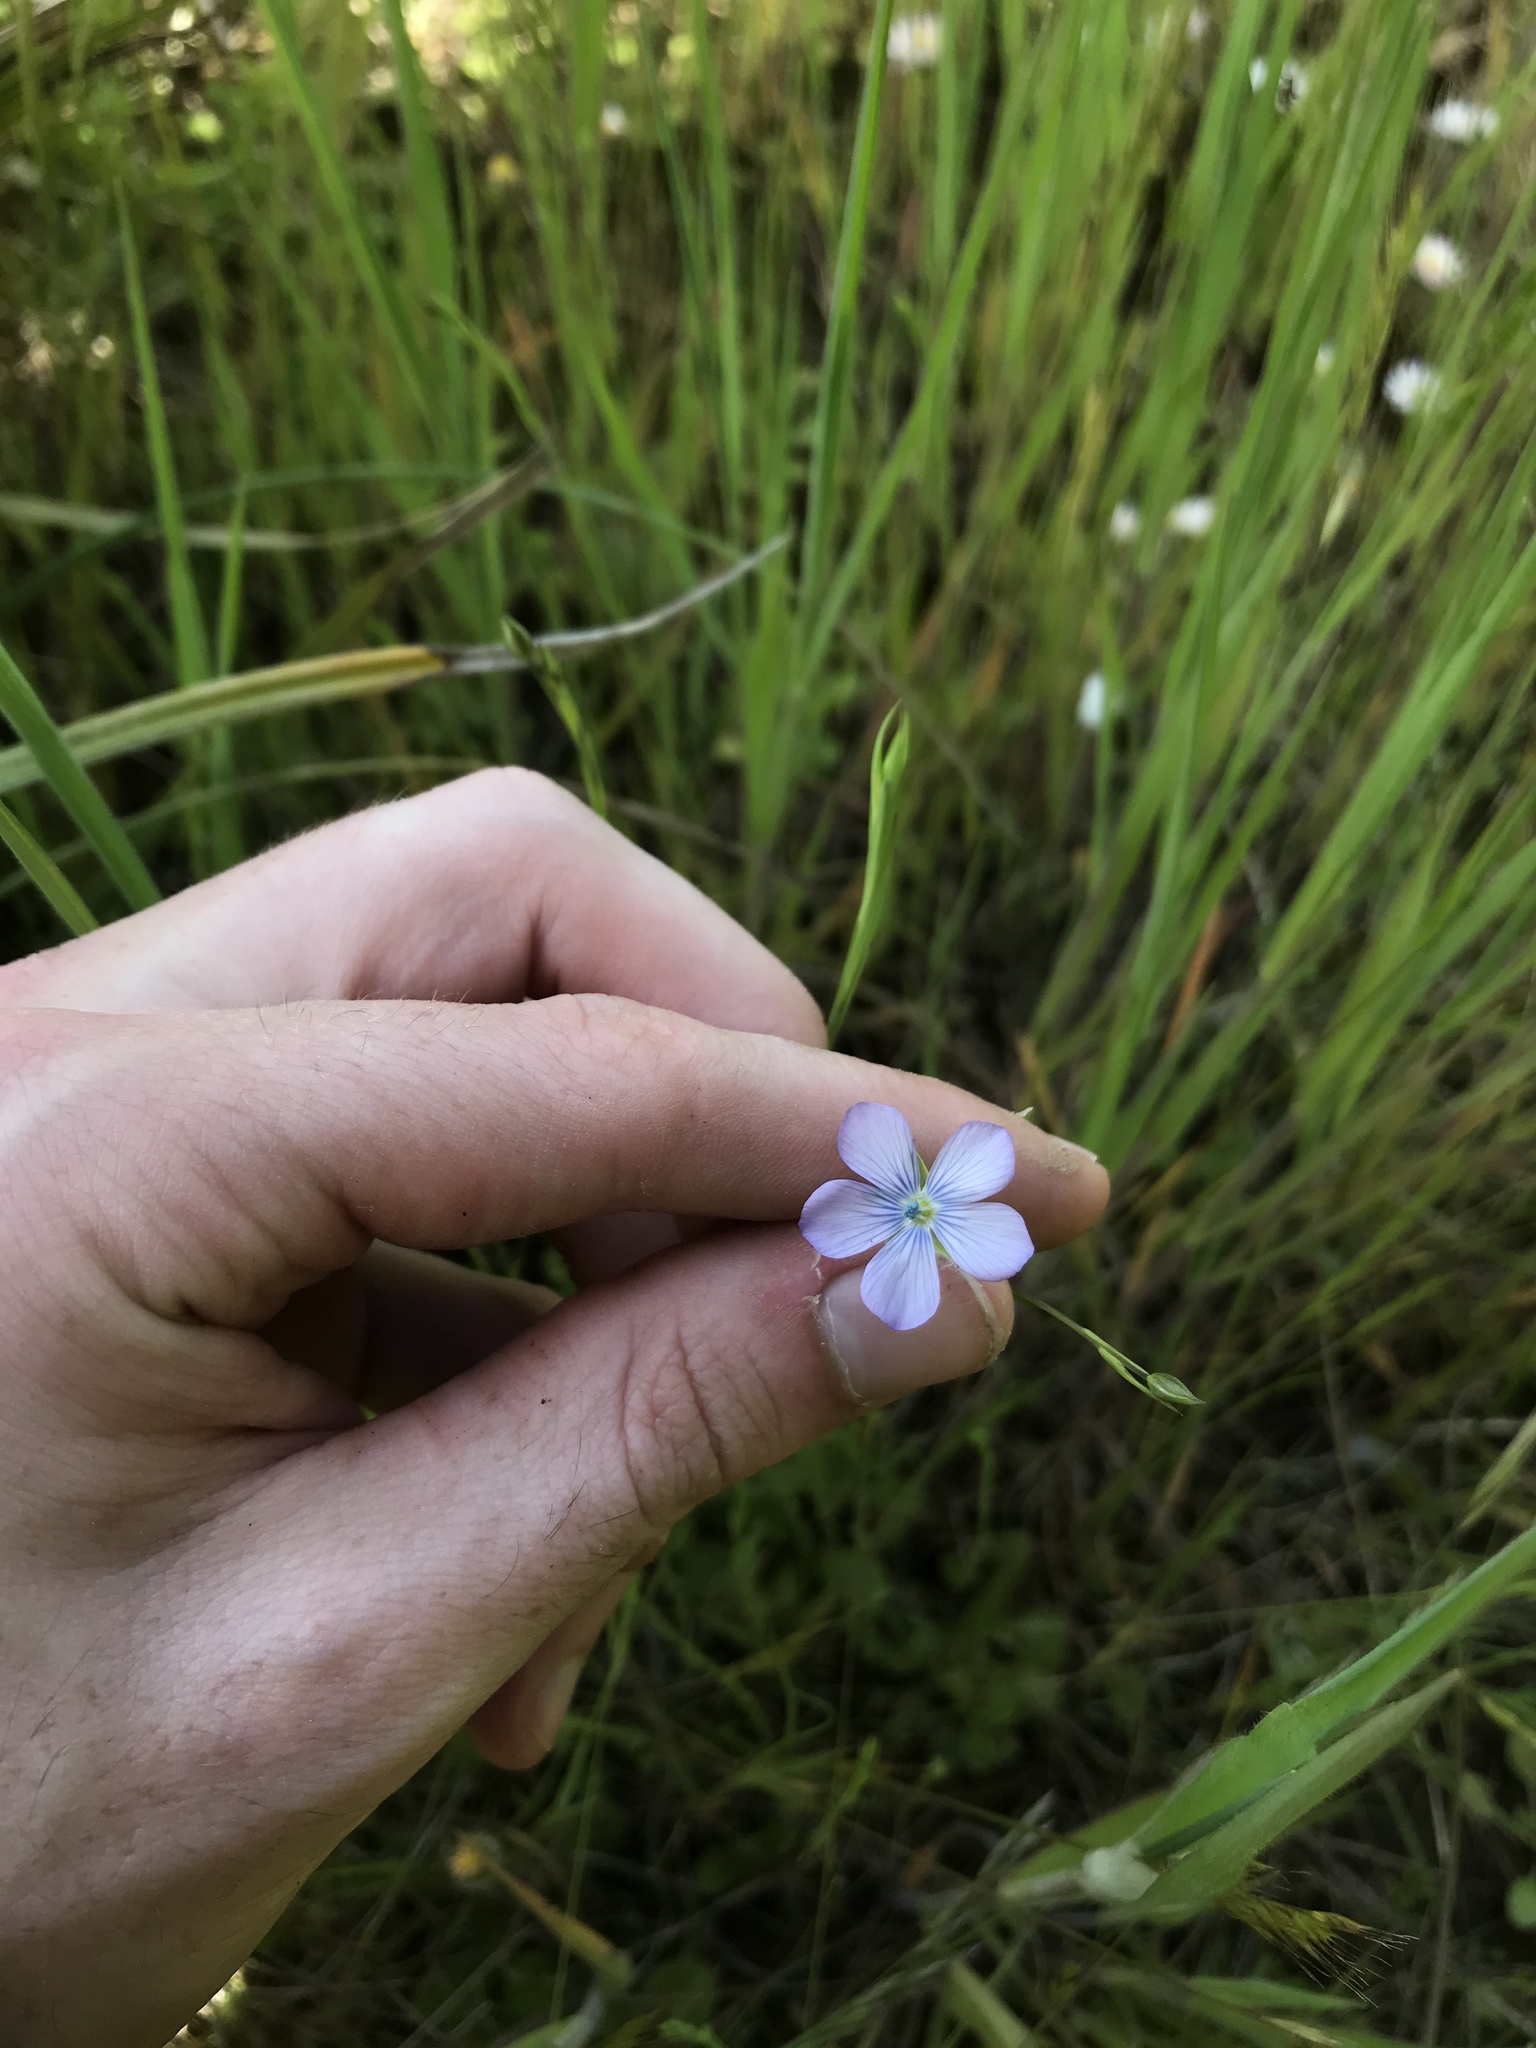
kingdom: Plantae
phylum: Tracheophyta
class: Magnoliopsida
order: Malpighiales
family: Linaceae
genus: Linum
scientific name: Linum bienne
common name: Pale flax
